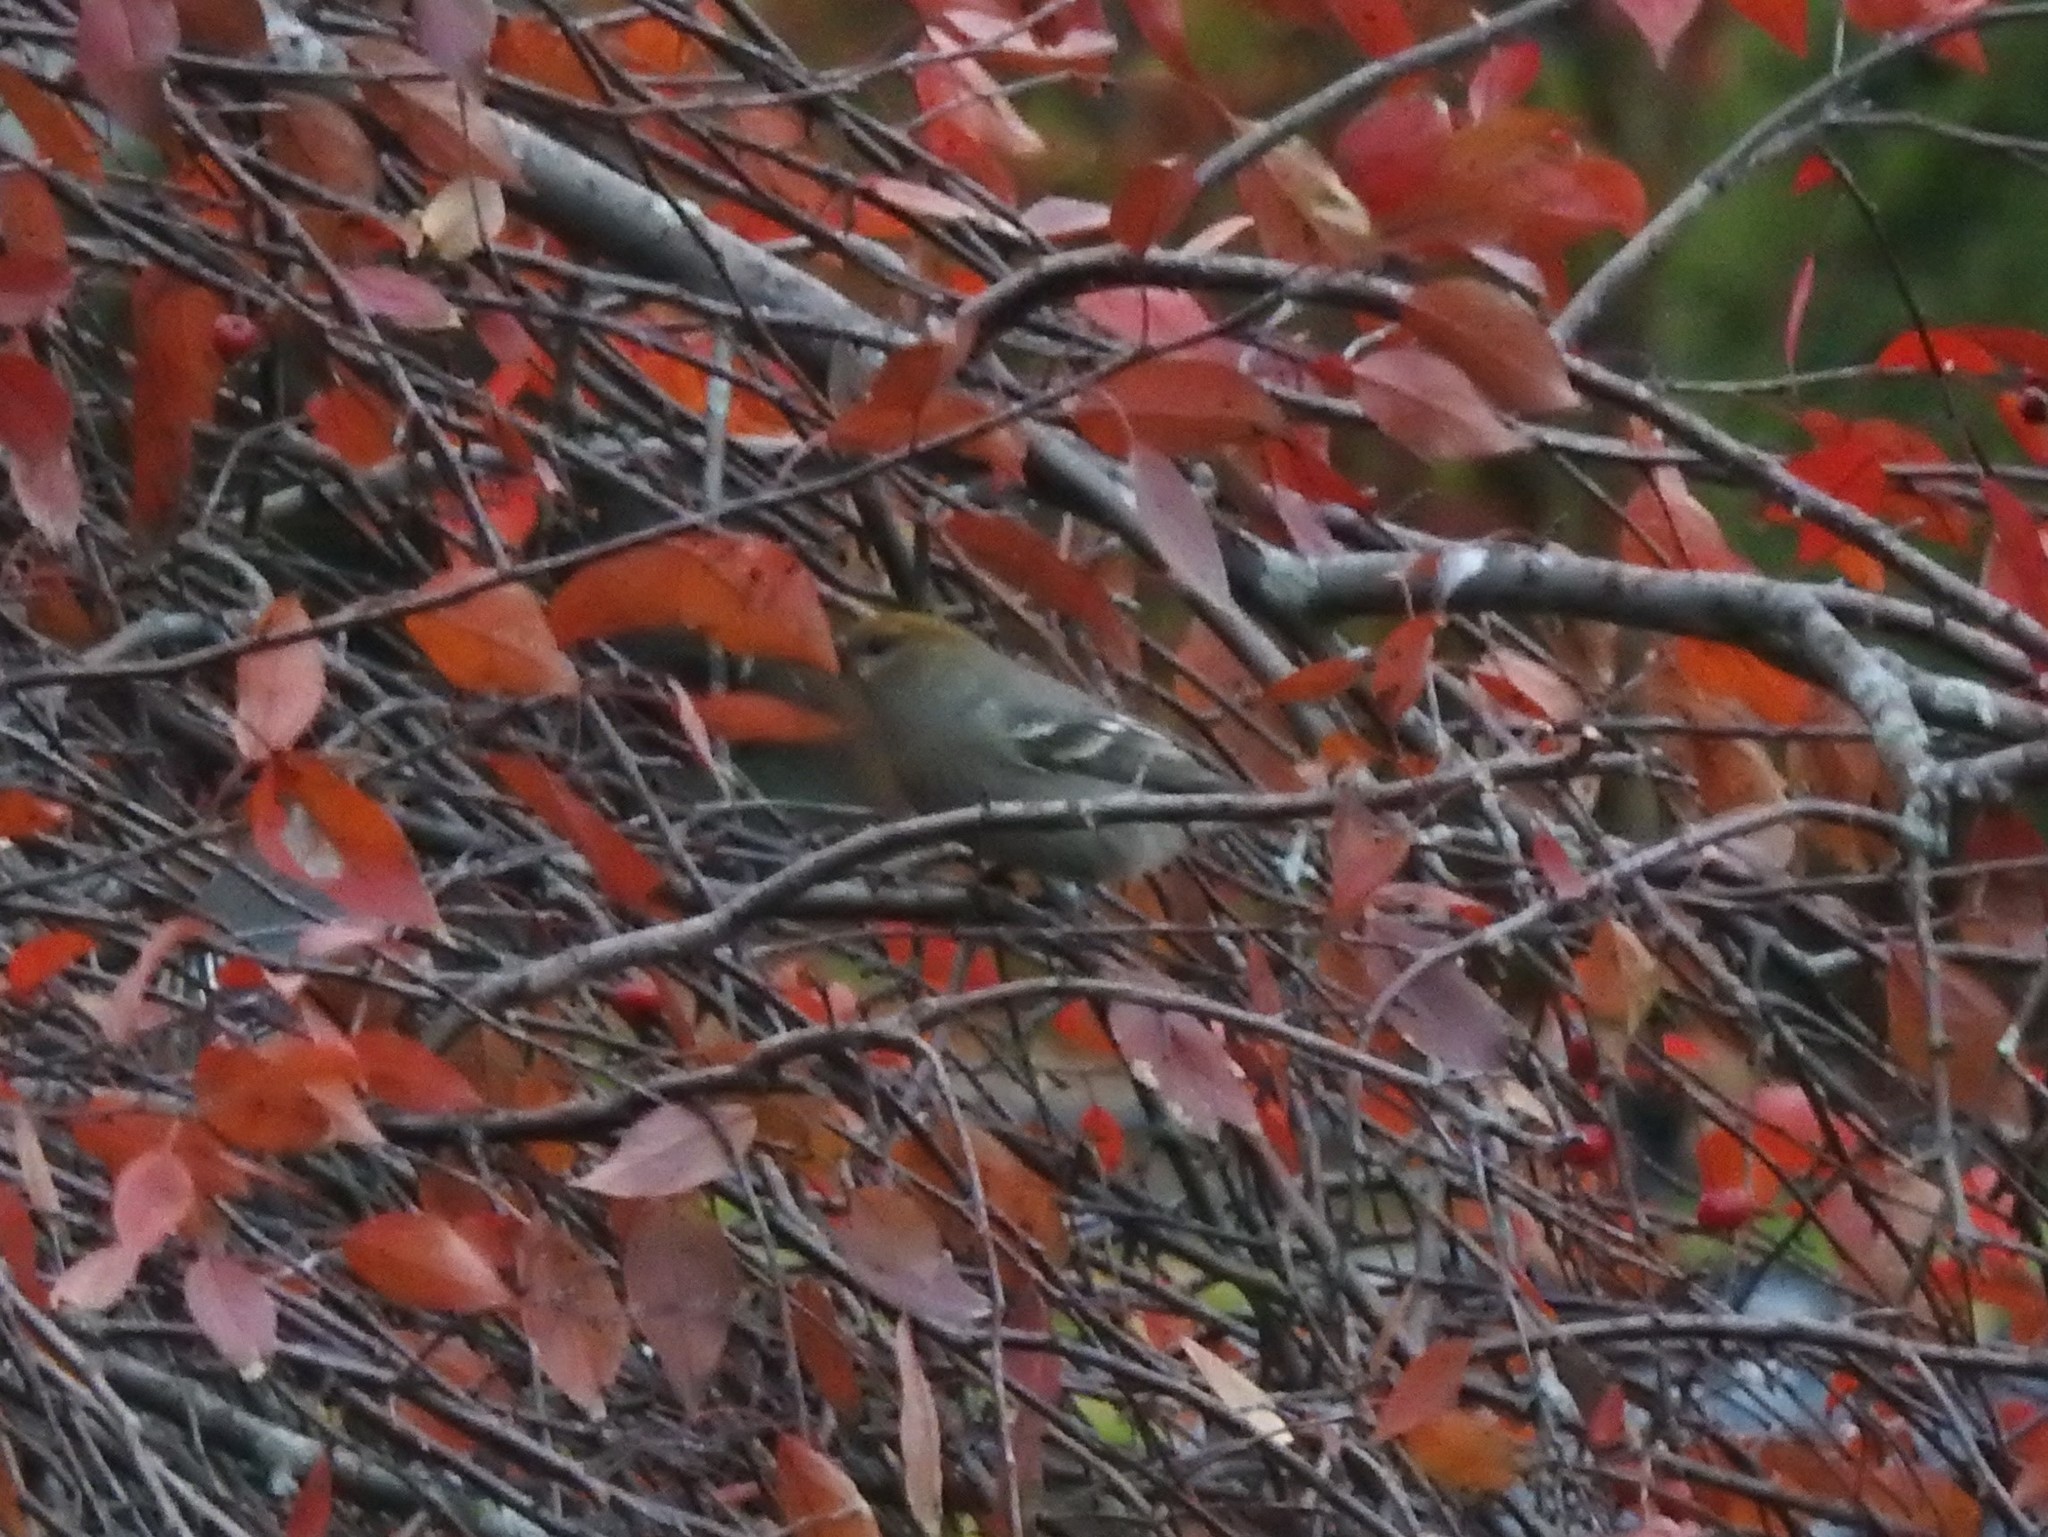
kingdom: Animalia
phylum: Chordata
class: Aves
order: Passeriformes
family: Fringillidae
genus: Pinicola
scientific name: Pinicola enucleator
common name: Pine grosbeak
